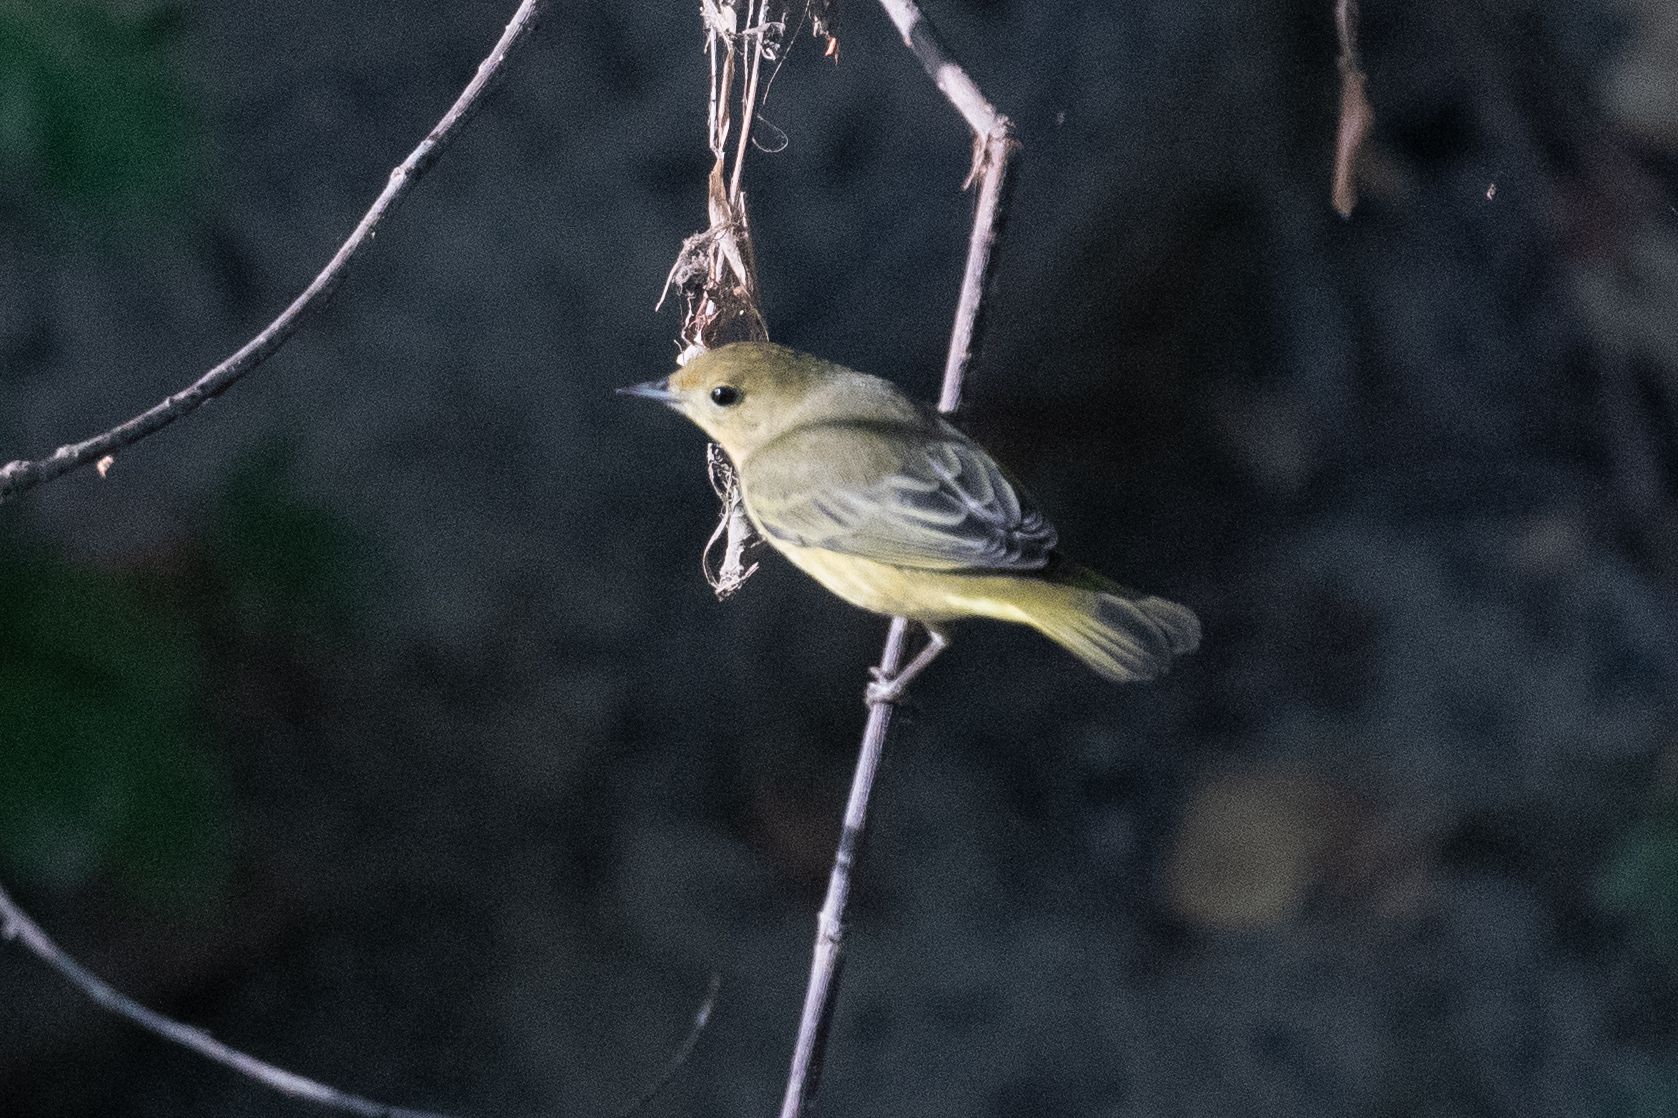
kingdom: Animalia
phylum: Chordata
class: Aves
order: Passeriformes
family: Parulidae
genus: Setophaga
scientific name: Setophaga petechia
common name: Yellow warbler
